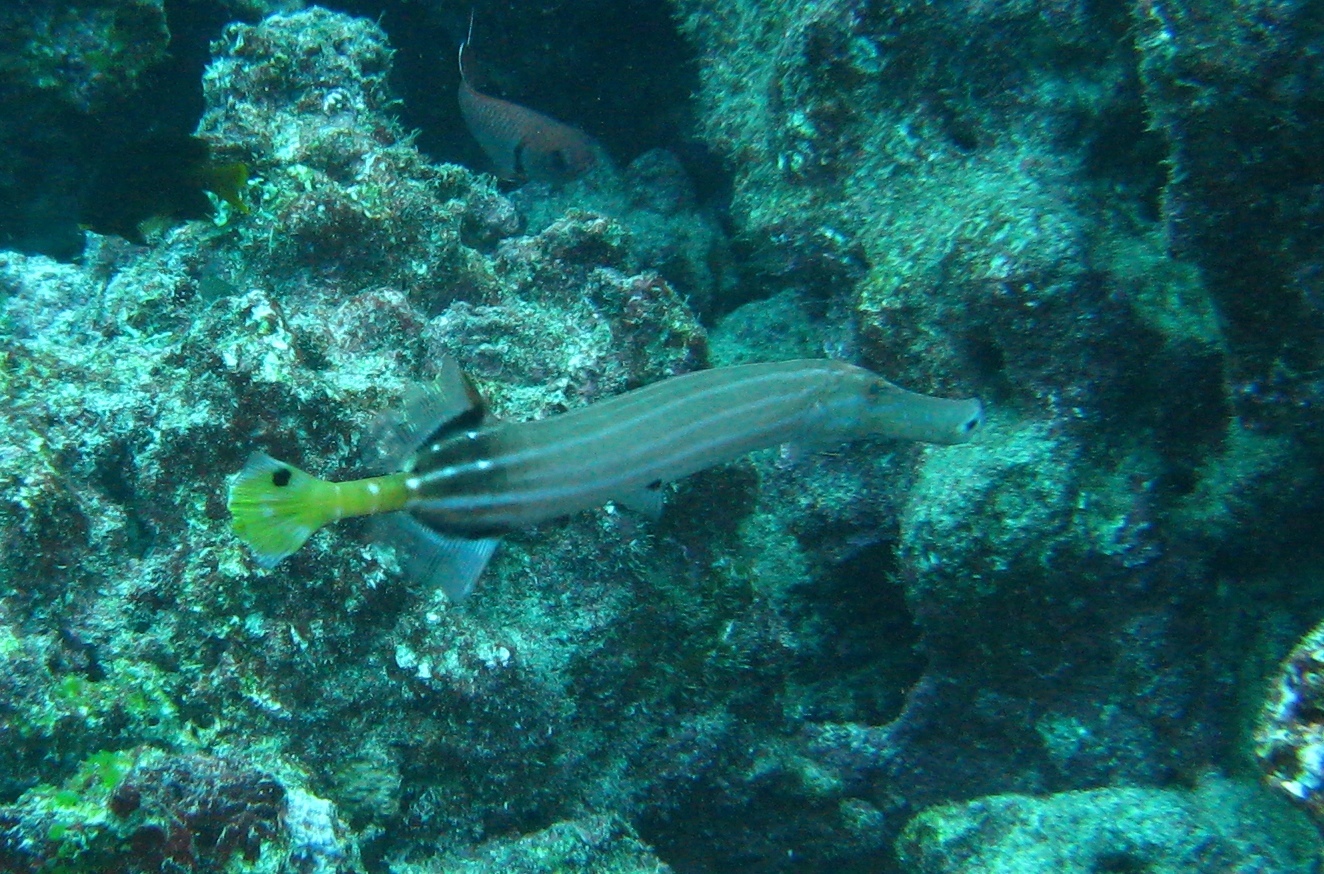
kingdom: Animalia
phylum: Chordata
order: Syngnathiformes
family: Aulostomidae
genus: Aulostomus
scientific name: Aulostomus chinensis
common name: Chinese trumpetfish
